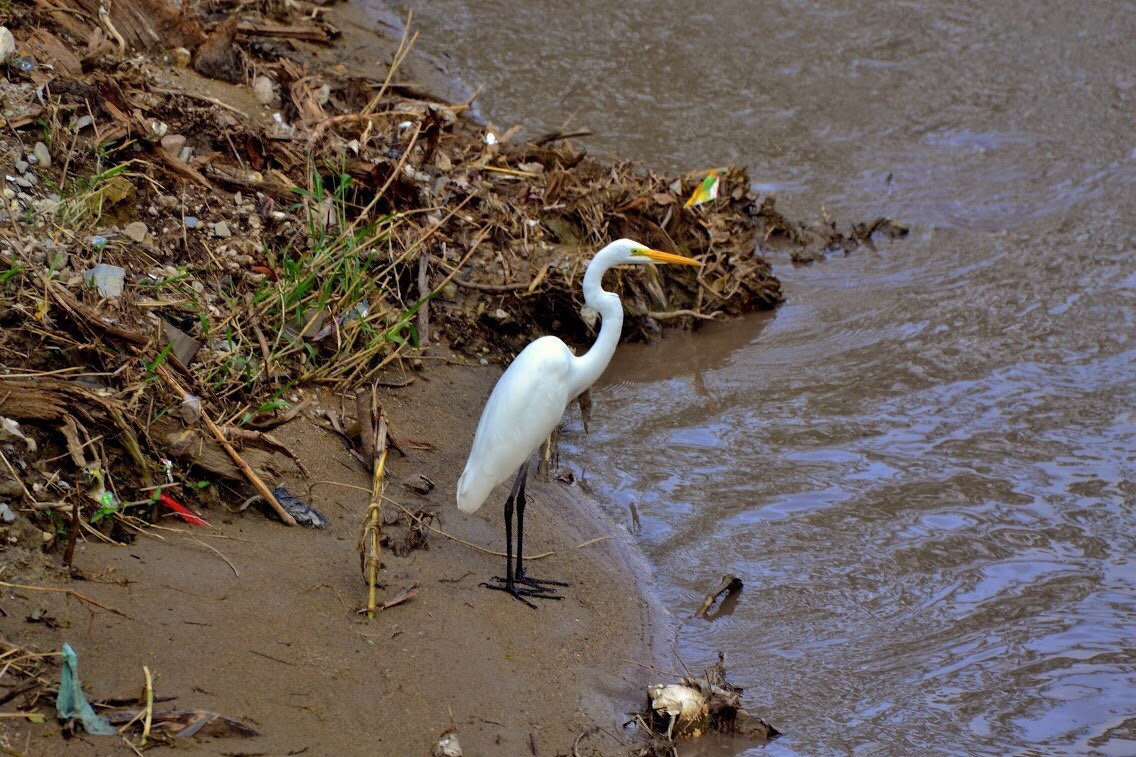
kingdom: Animalia
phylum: Chordata
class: Aves
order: Pelecaniformes
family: Ardeidae
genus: Ardea
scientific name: Ardea alba
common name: Great egret
